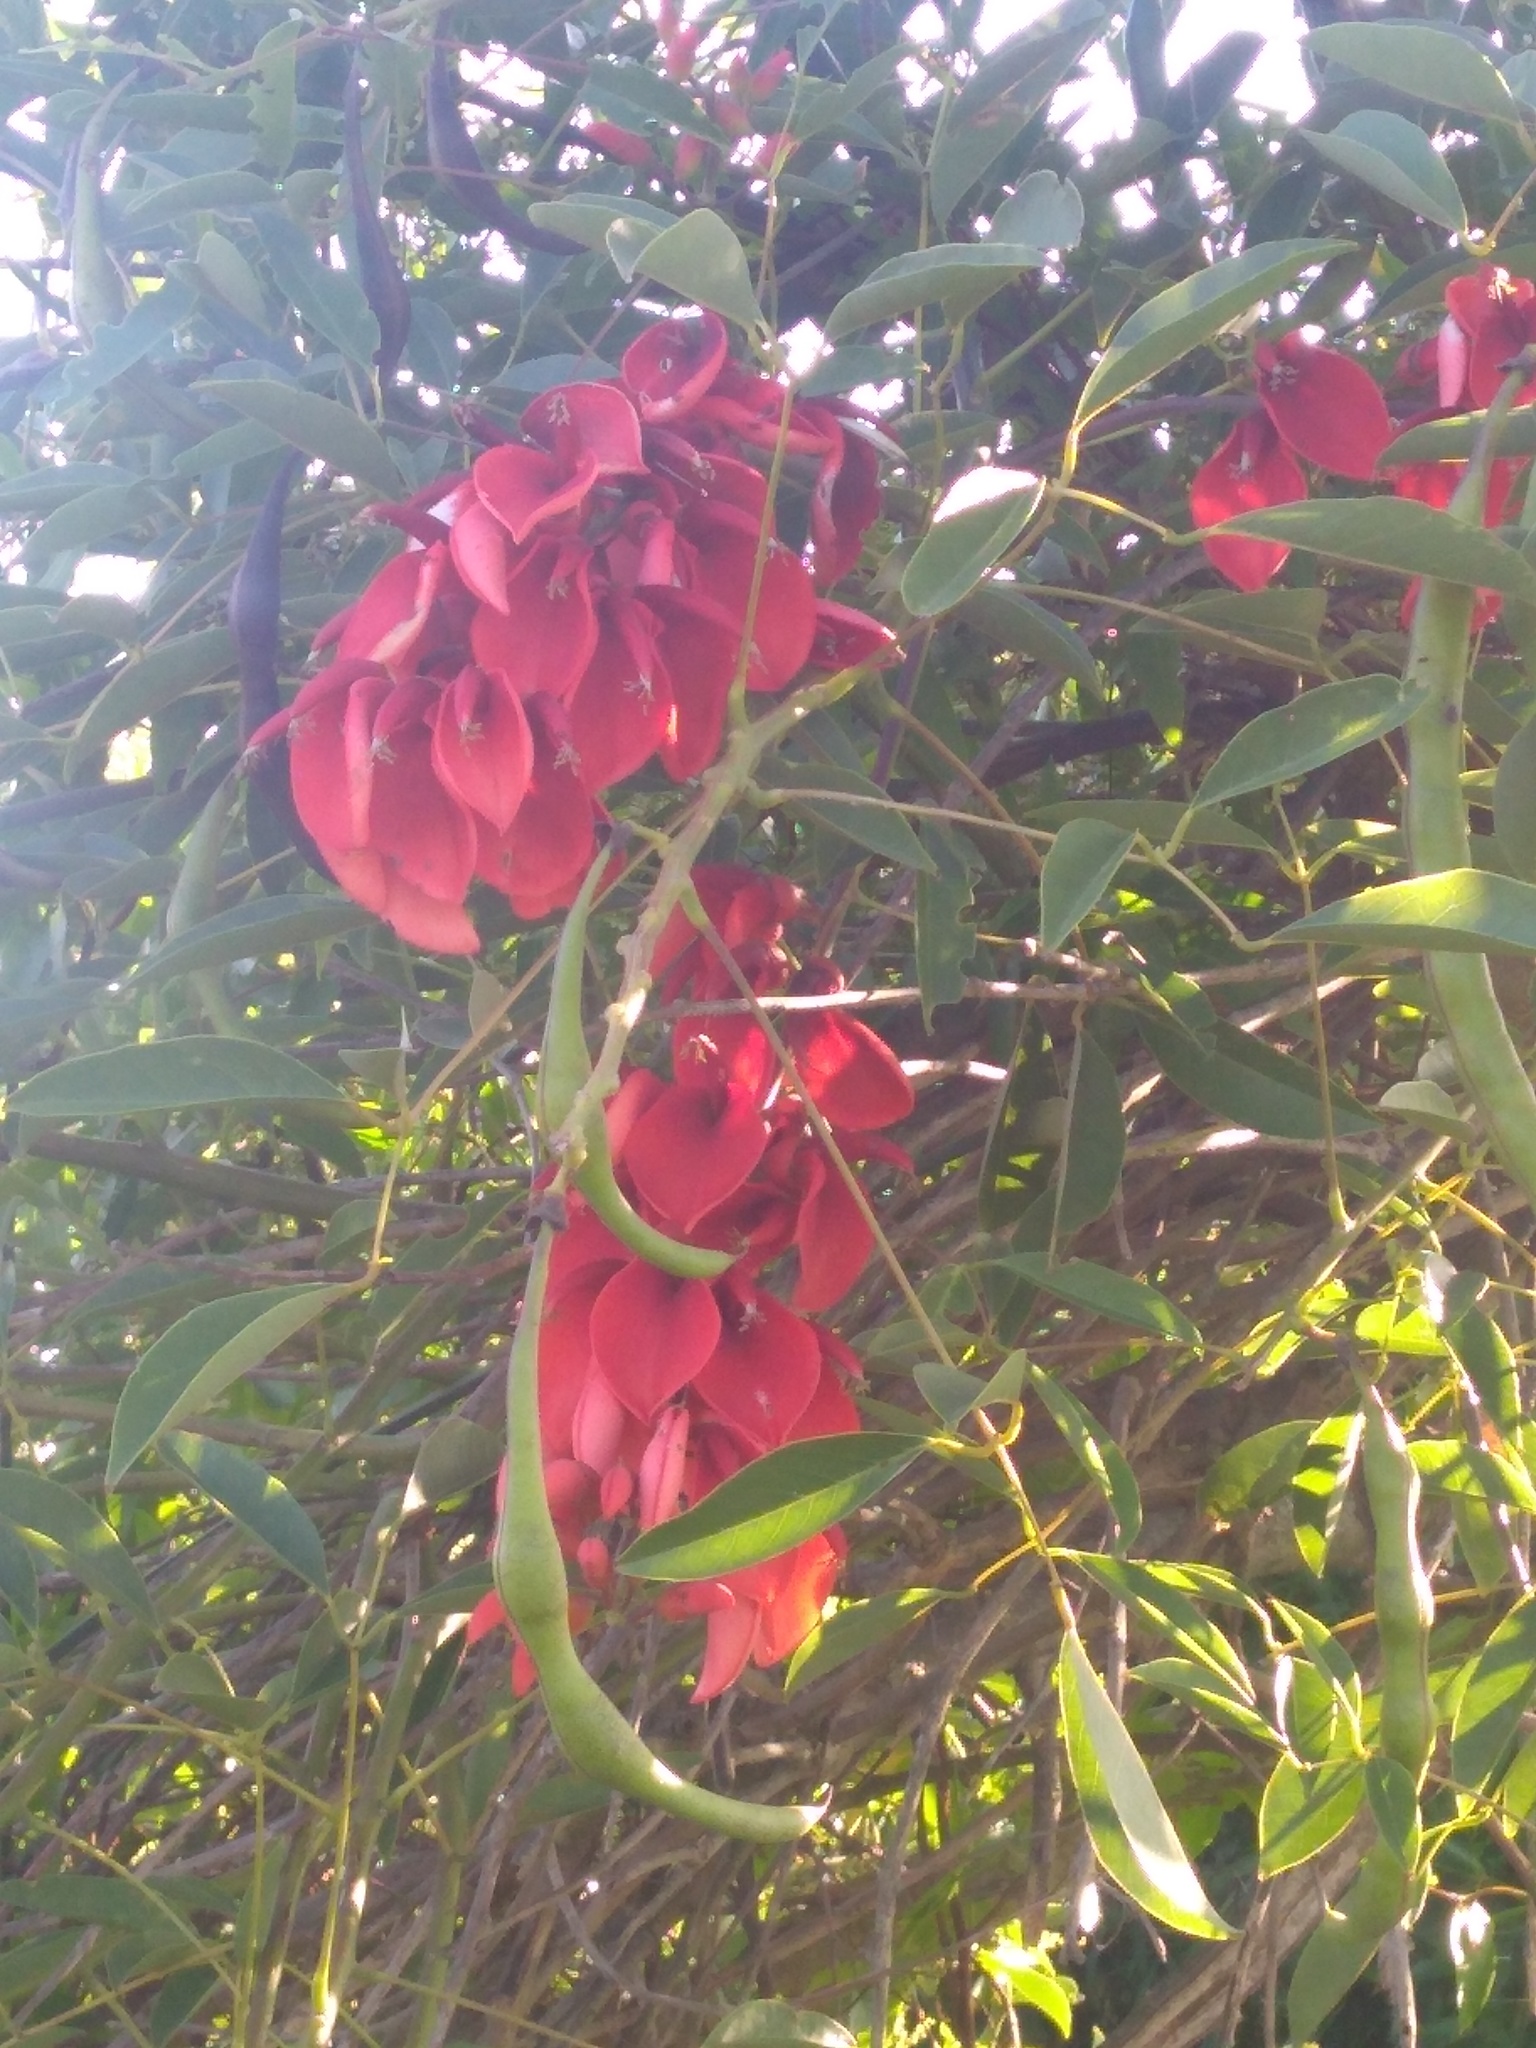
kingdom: Plantae
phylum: Tracheophyta
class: Magnoliopsida
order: Fabales
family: Fabaceae
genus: Erythrina
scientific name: Erythrina crista-galli
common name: Cockspur coral tree
